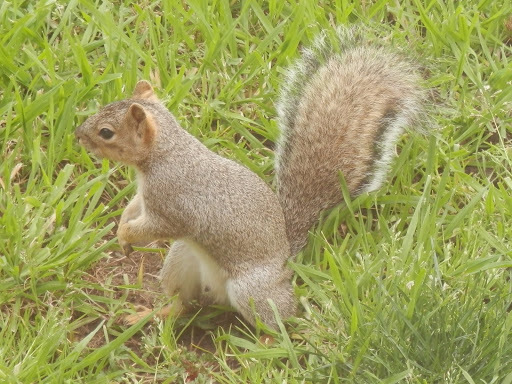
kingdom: Animalia
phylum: Chordata
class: Mammalia
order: Rodentia
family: Sciuridae
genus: Sciurus
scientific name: Sciurus carolinensis
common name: Eastern gray squirrel
